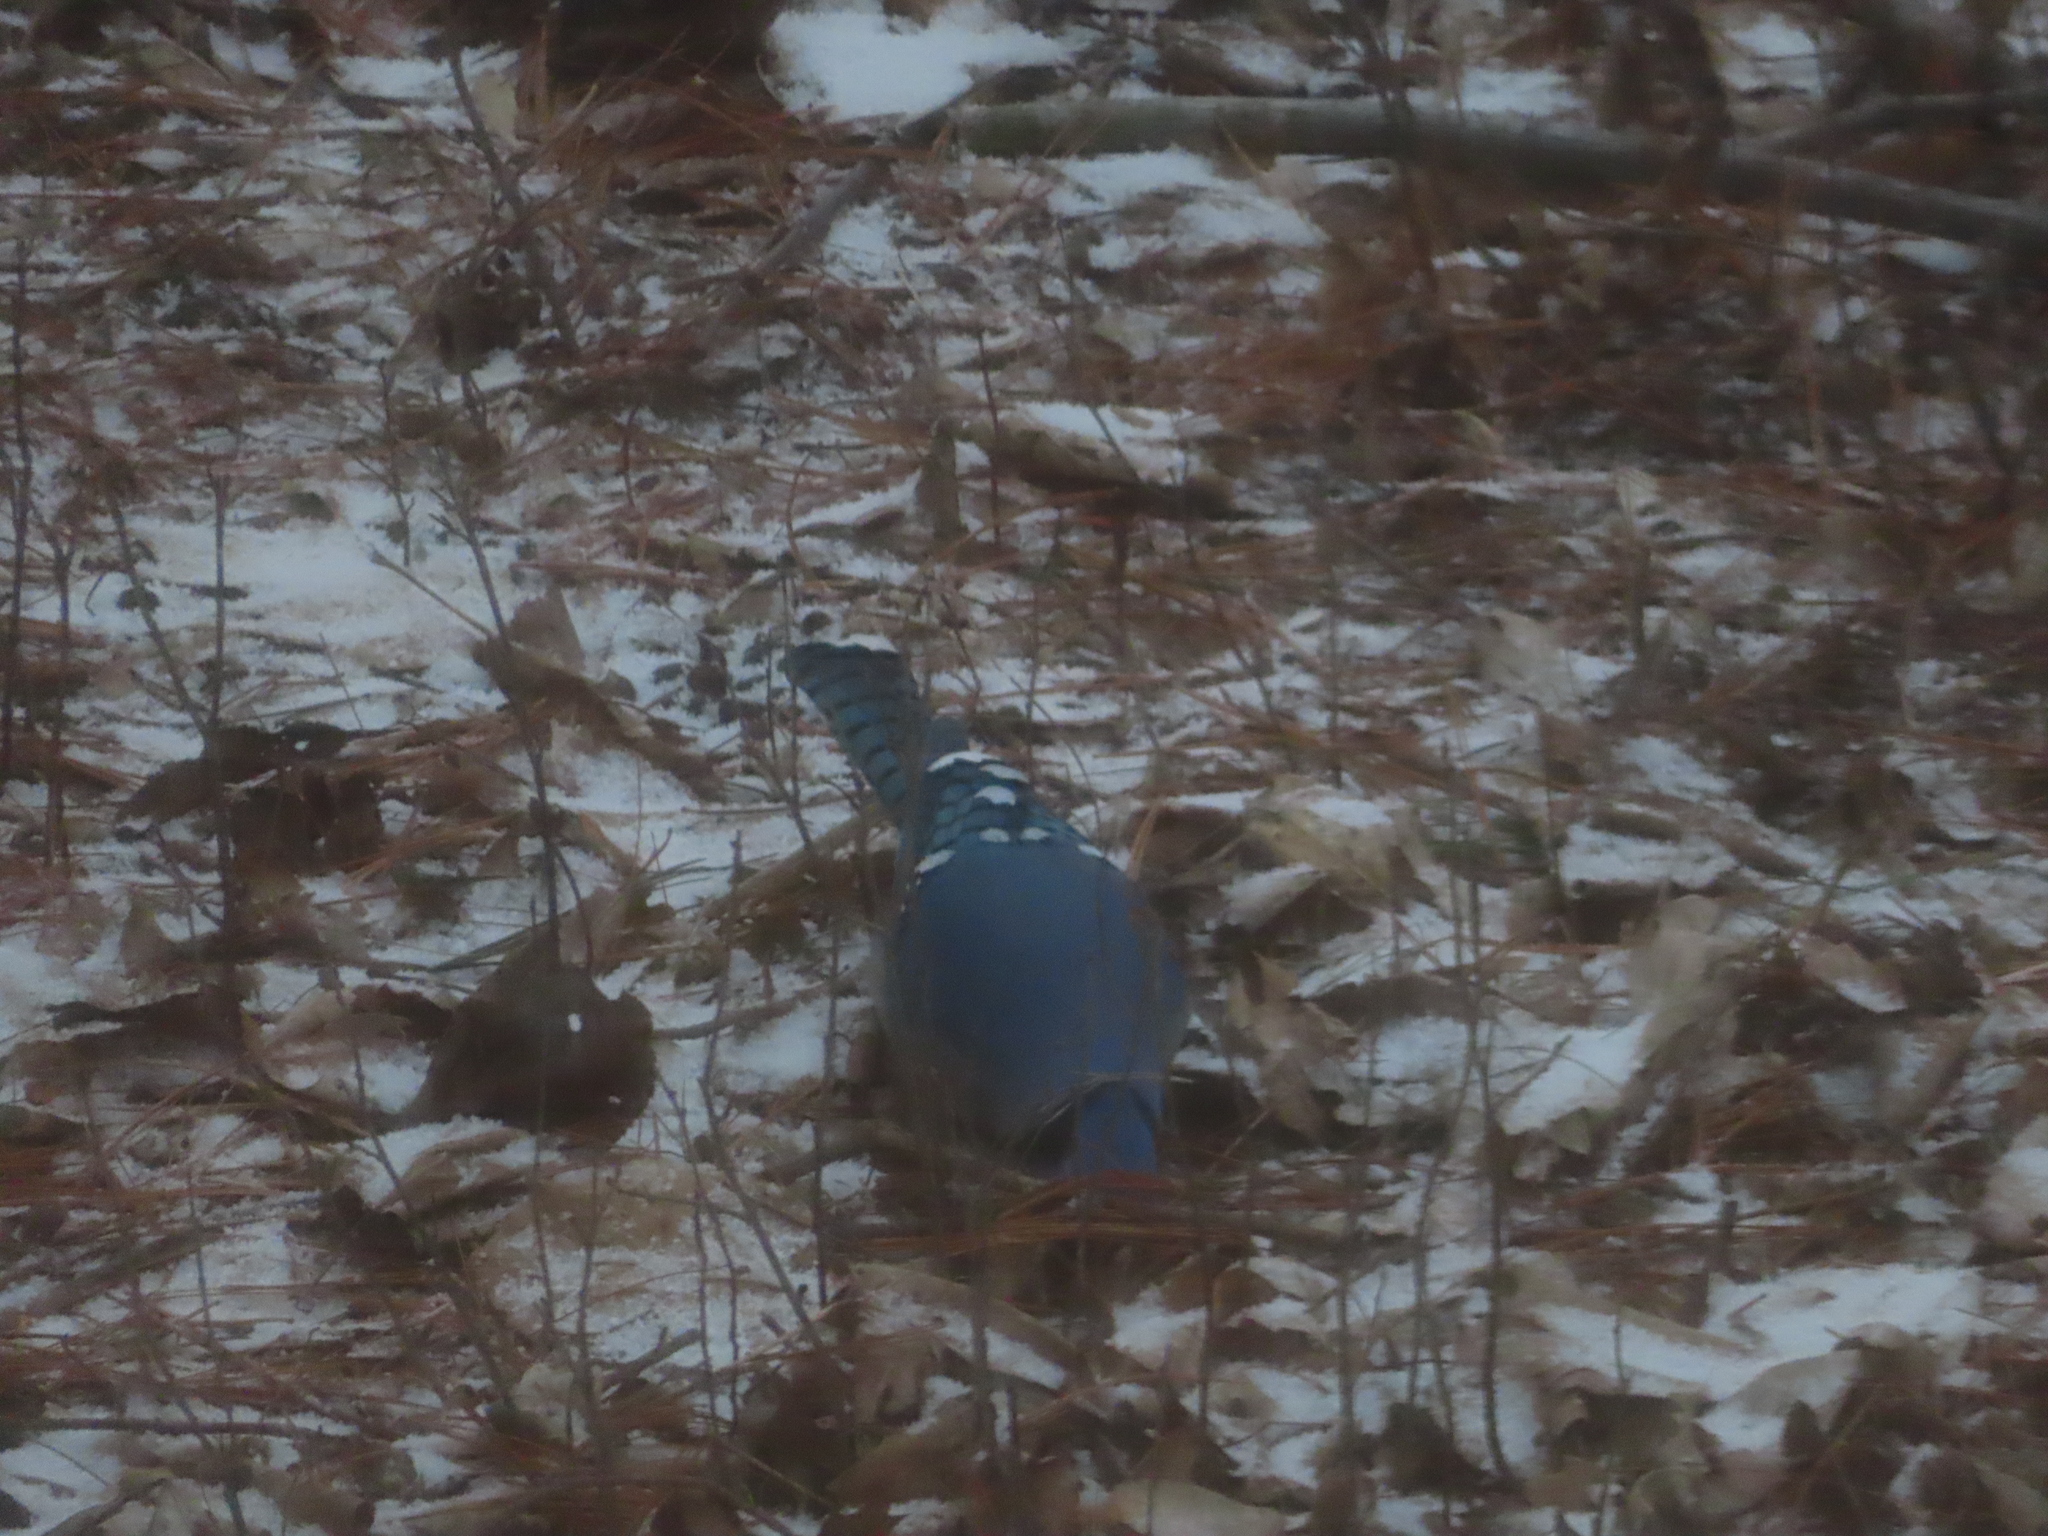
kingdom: Animalia
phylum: Chordata
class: Aves
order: Passeriformes
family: Corvidae
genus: Cyanocitta
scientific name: Cyanocitta cristata
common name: Blue jay
